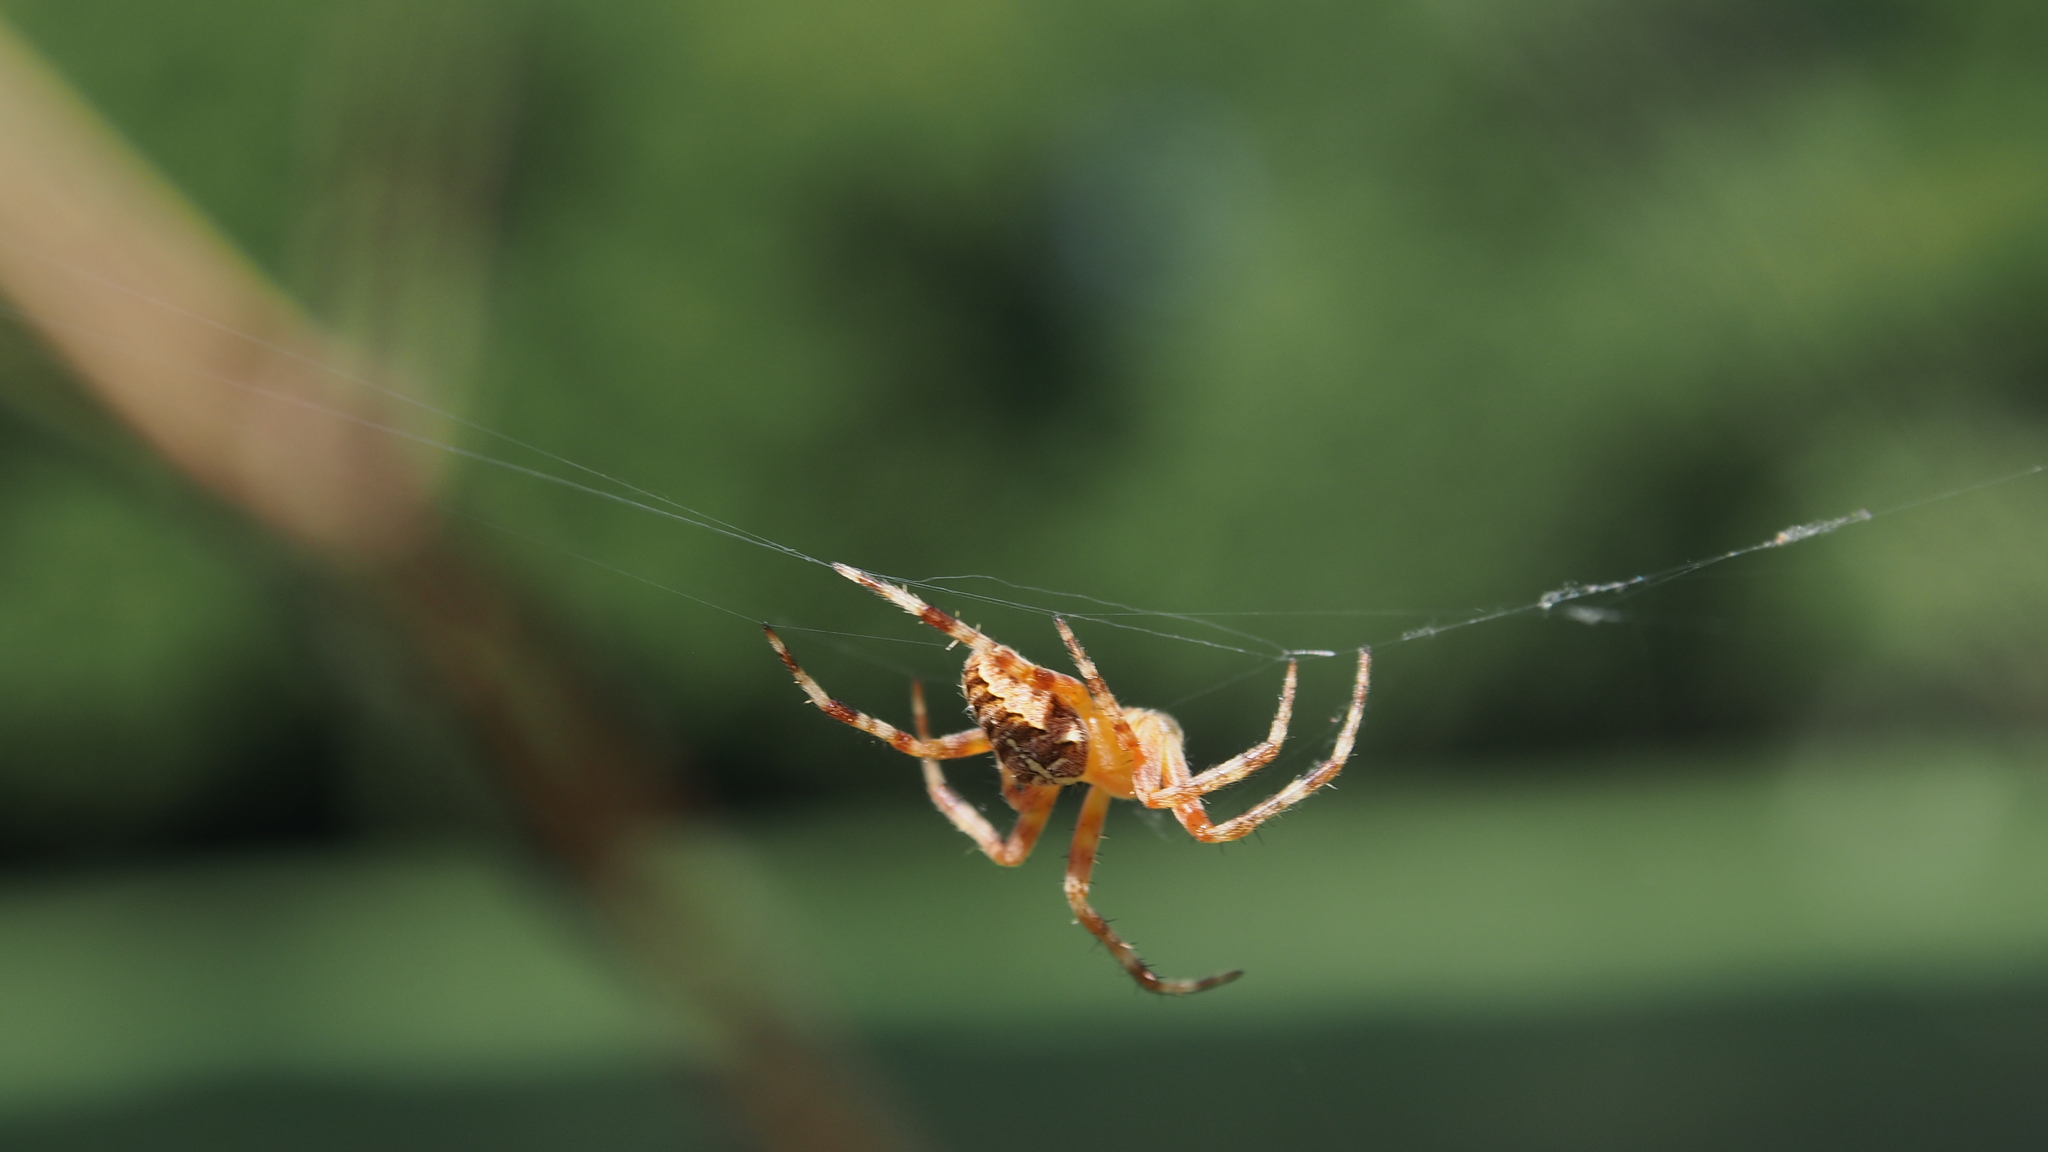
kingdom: Animalia
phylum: Arthropoda
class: Arachnida
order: Araneae
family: Araneidae
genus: Araneus
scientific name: Araneus diadematus
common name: Cross orbweaver
